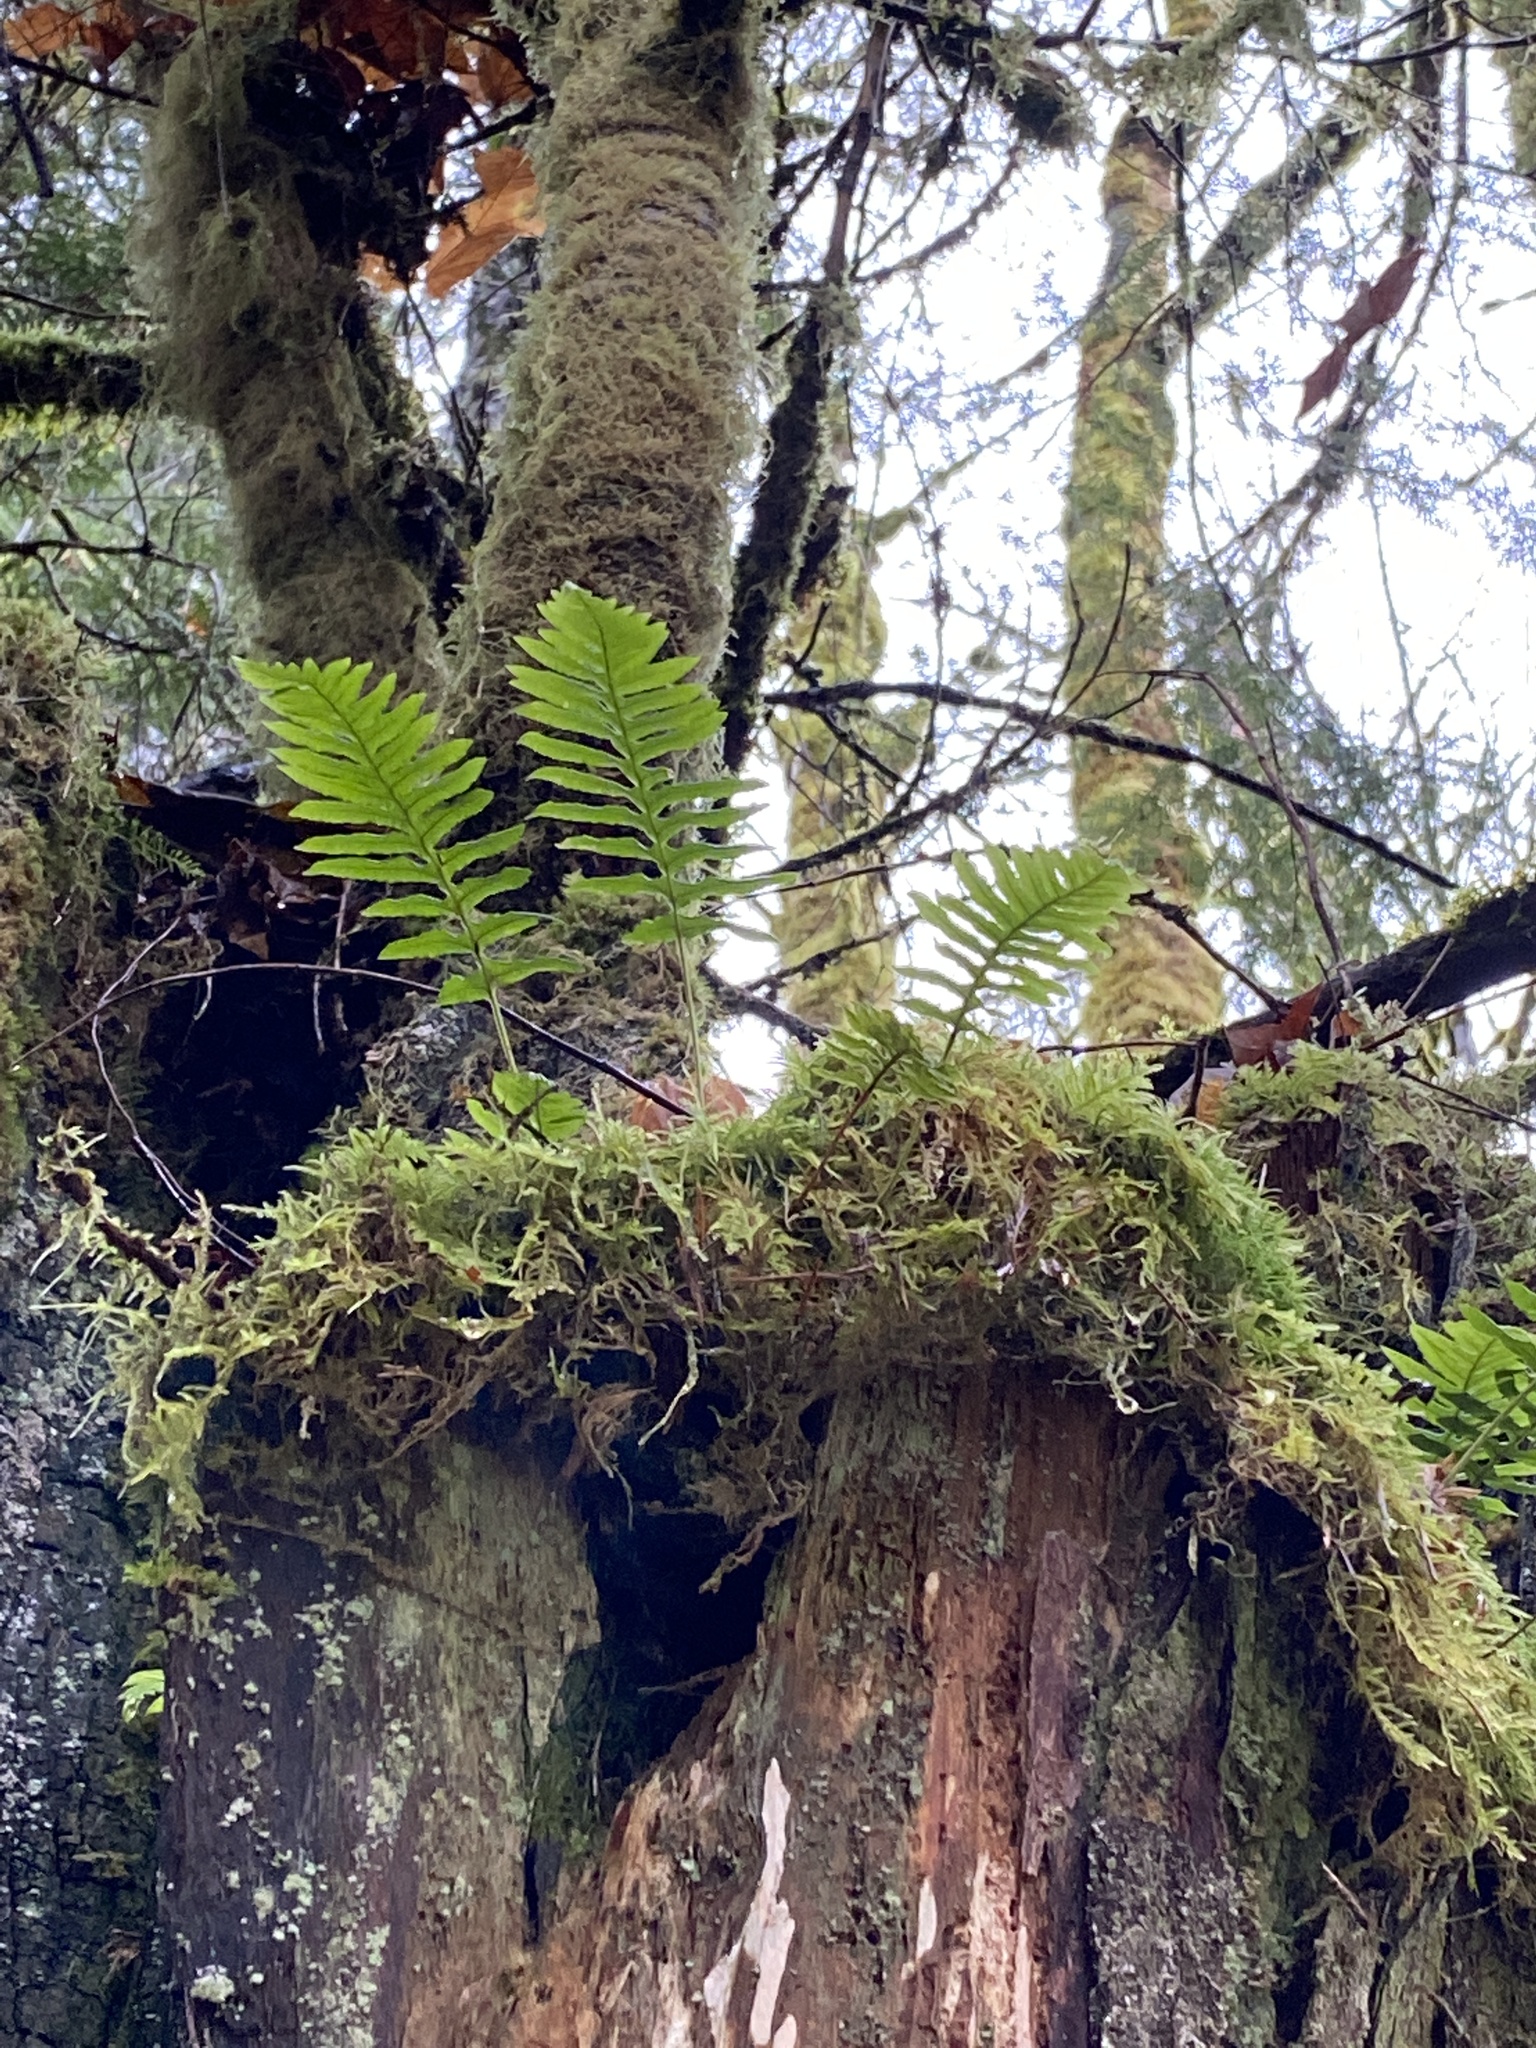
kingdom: Plantae
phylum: Tracheophyta
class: Polypodiopsida
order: Polypodiales
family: Polypodiaceae
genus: Polypodium
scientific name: Polypodium glycyrrhiza
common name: Licorice fern
